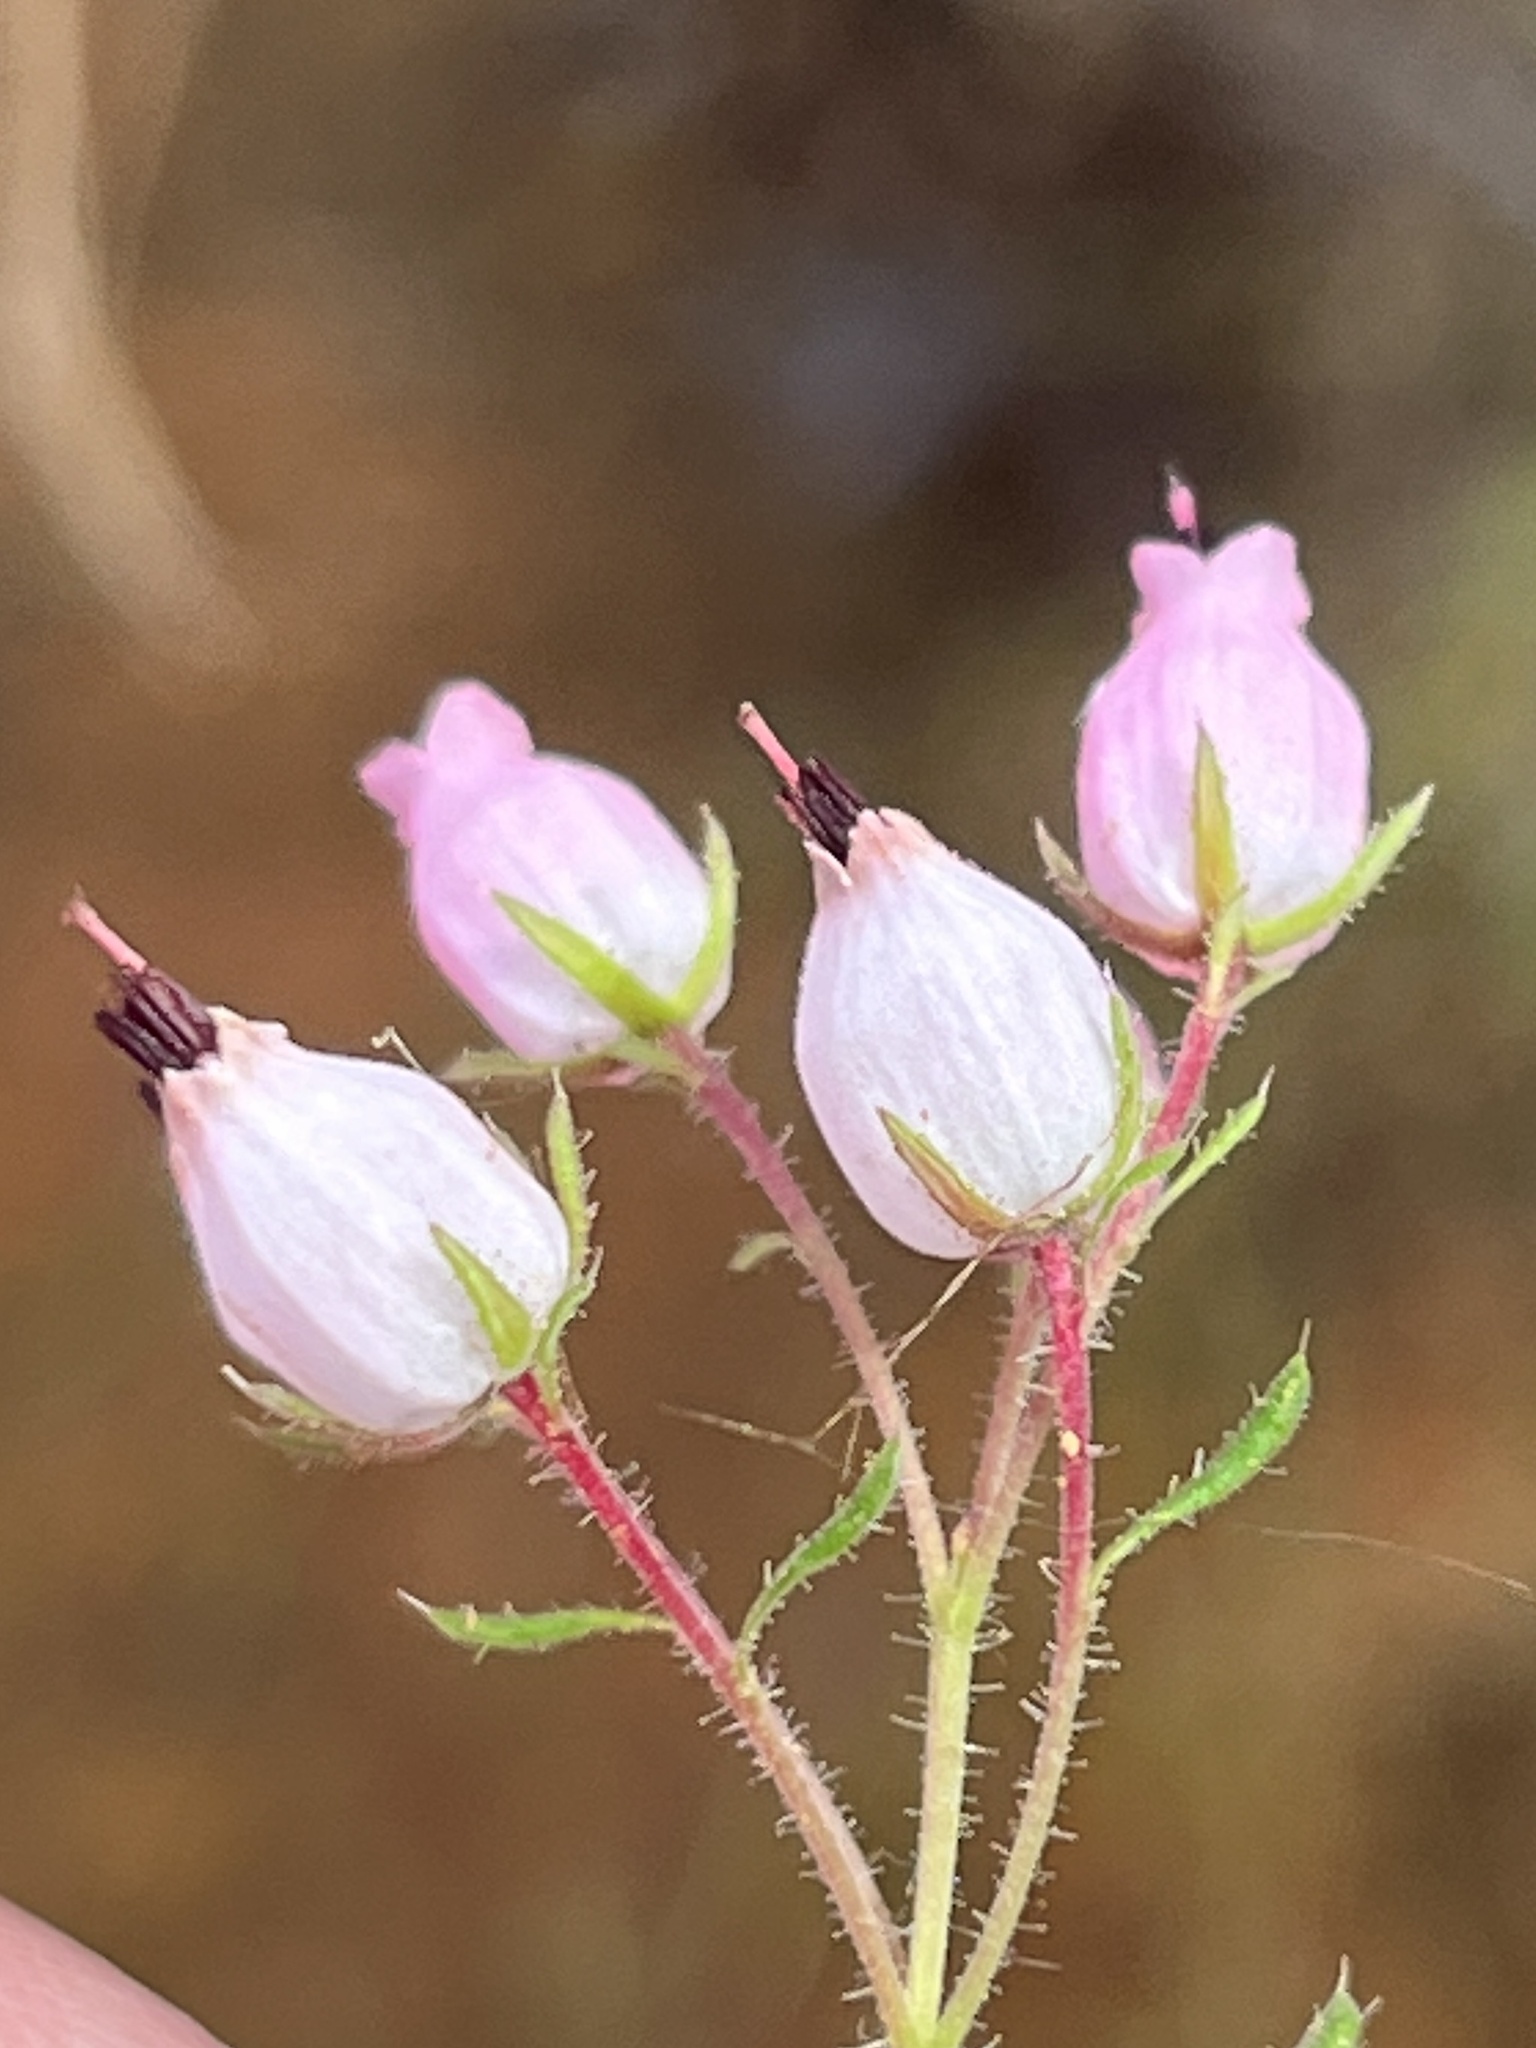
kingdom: Plantae
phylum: Tracheophyta
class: Magnoliopsida
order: Ericales
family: Ericaceae
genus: Erica
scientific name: Erica hirta
